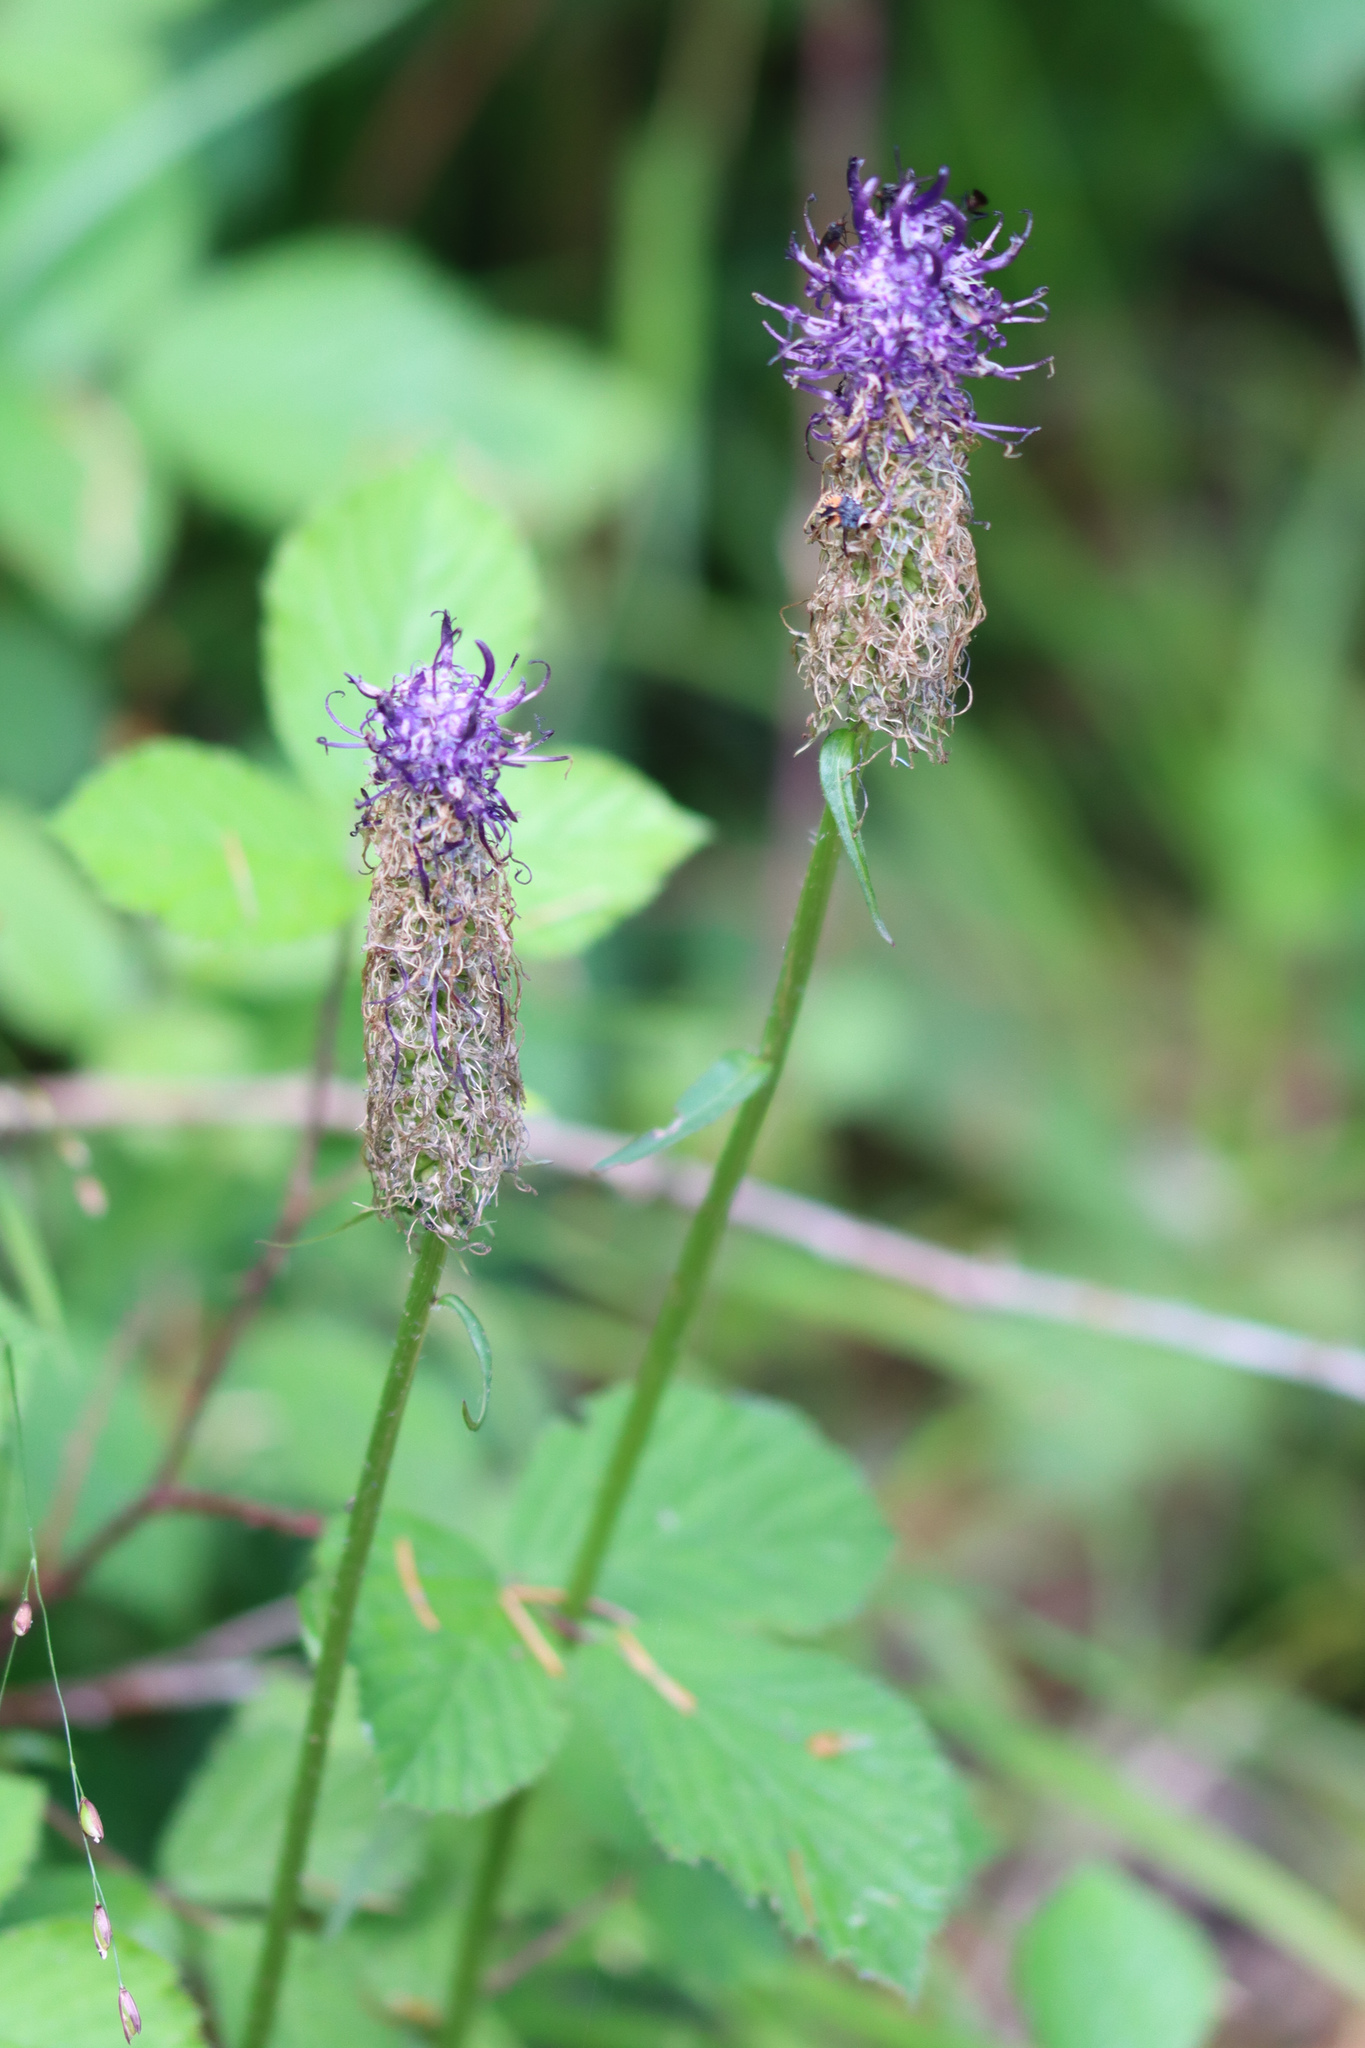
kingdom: Plantae
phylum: Tracheophyta
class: Magnoliopsida
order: Asterales
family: Campanulaceae
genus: Phyteuma
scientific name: Phyteuma nigrum
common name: Black rampion
